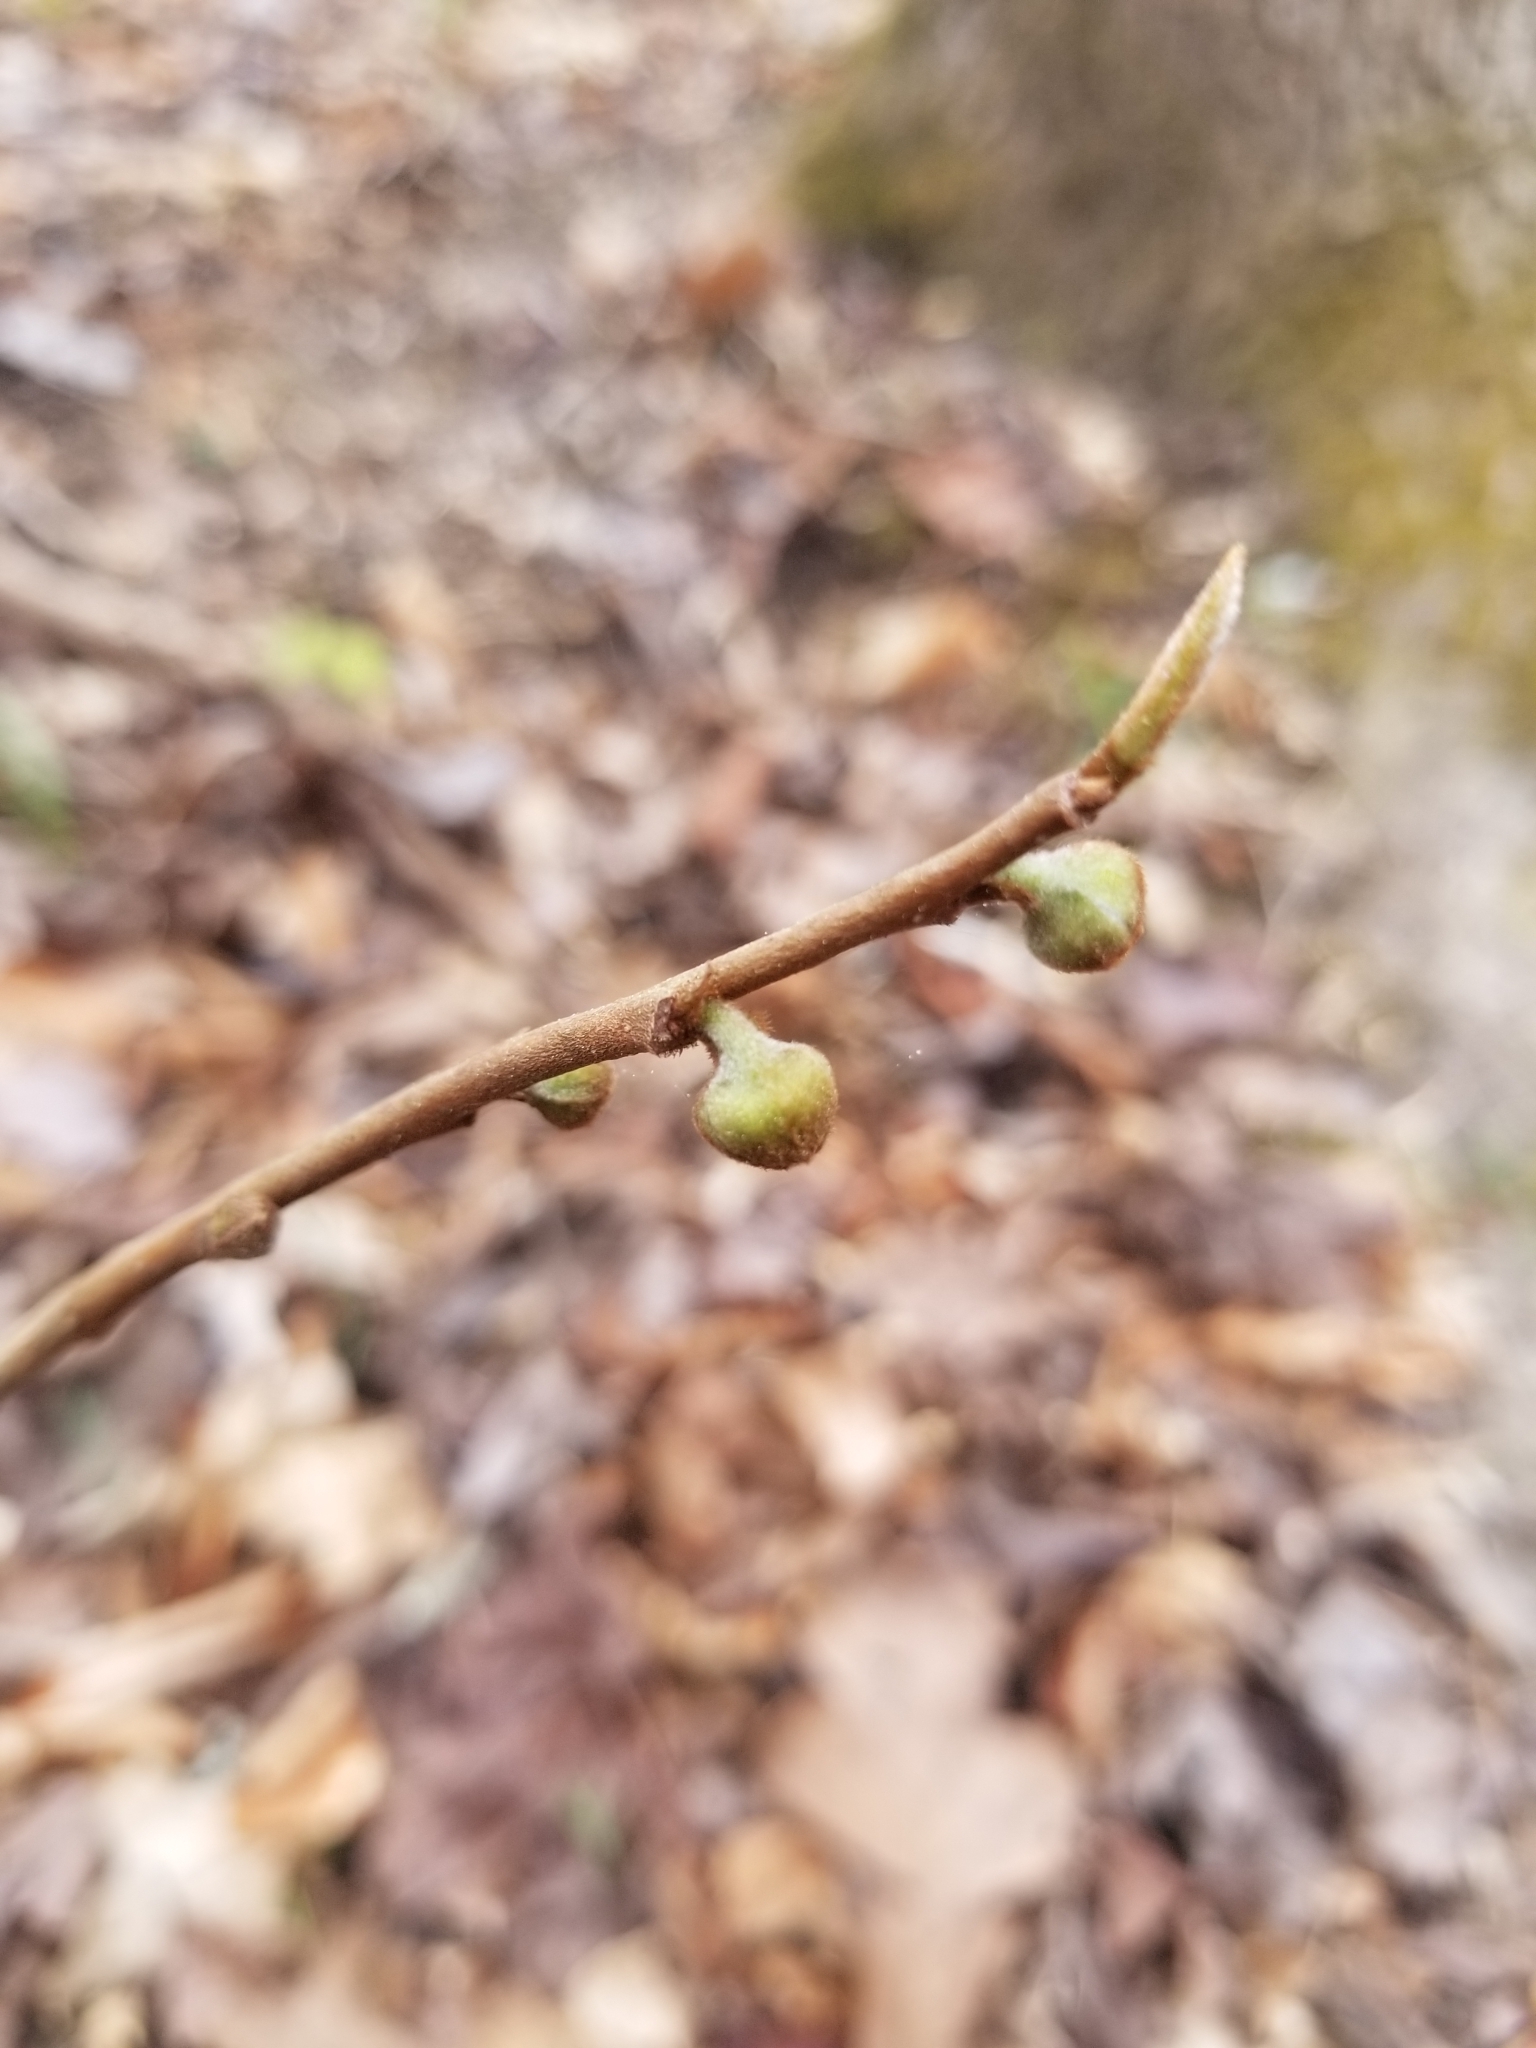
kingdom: Plantae
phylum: Tracheophyta
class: Magnoliopsida
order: Magnoliales
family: Annonaceae
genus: Asimina
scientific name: Asimina parviflora
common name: Dwarf pawpaw
